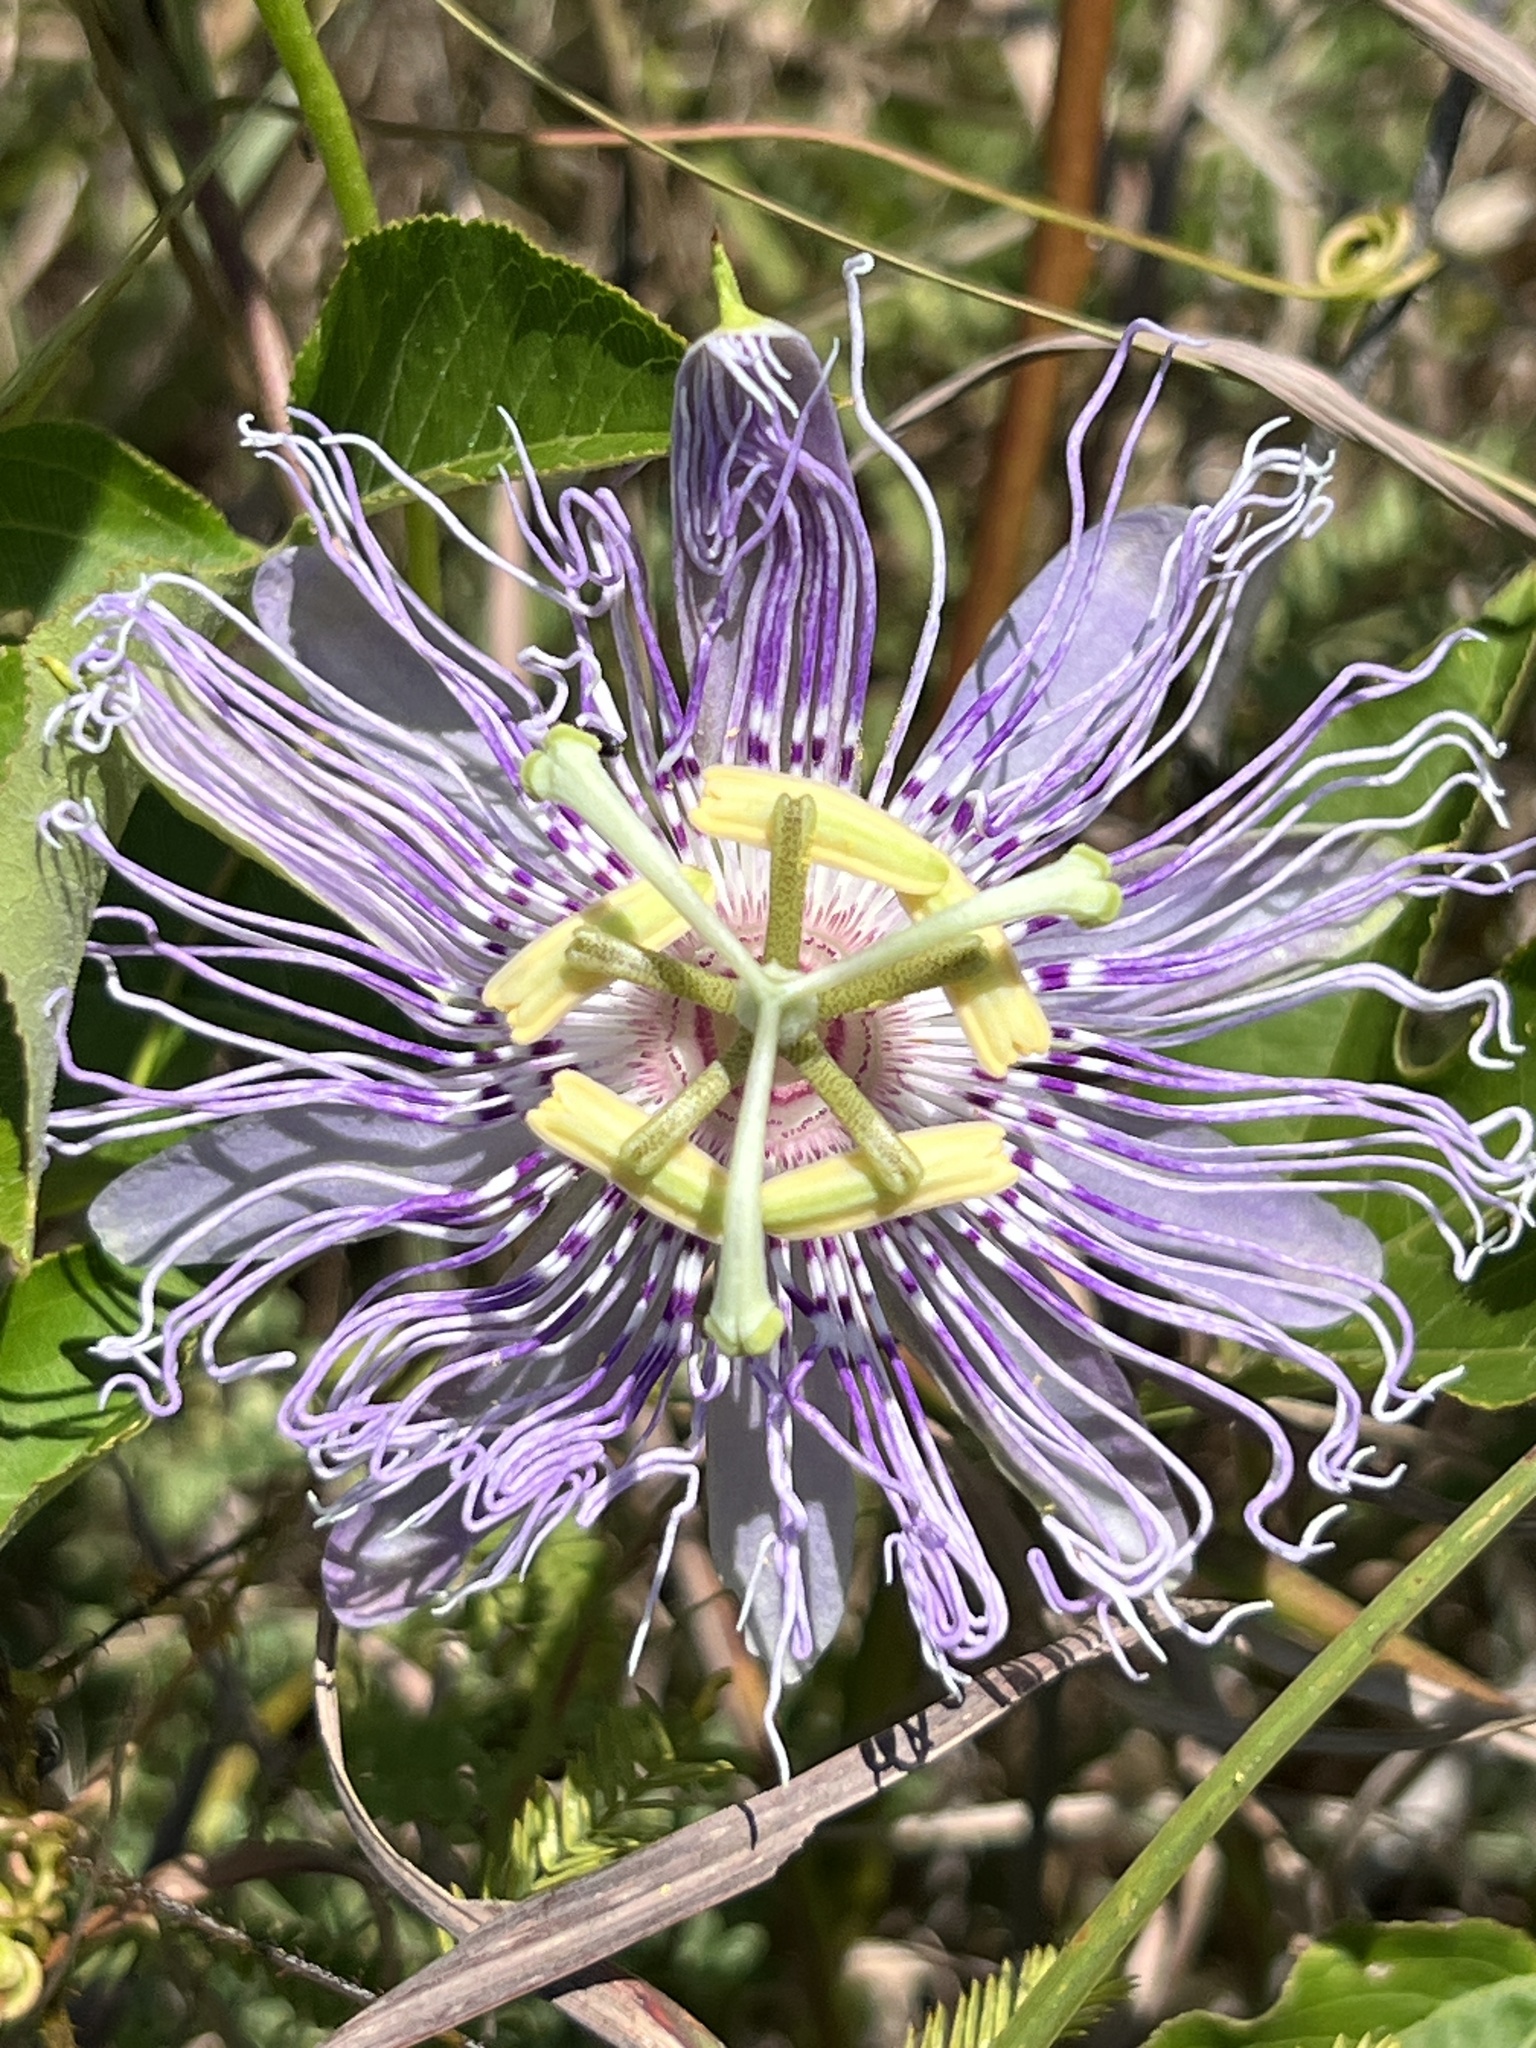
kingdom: Plantae
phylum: Tracheophyta
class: Magnoliopsida
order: Malpighiales
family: Passifloraceae
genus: Passiflora
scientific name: Passiflora incarnata
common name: Apricot-vine
